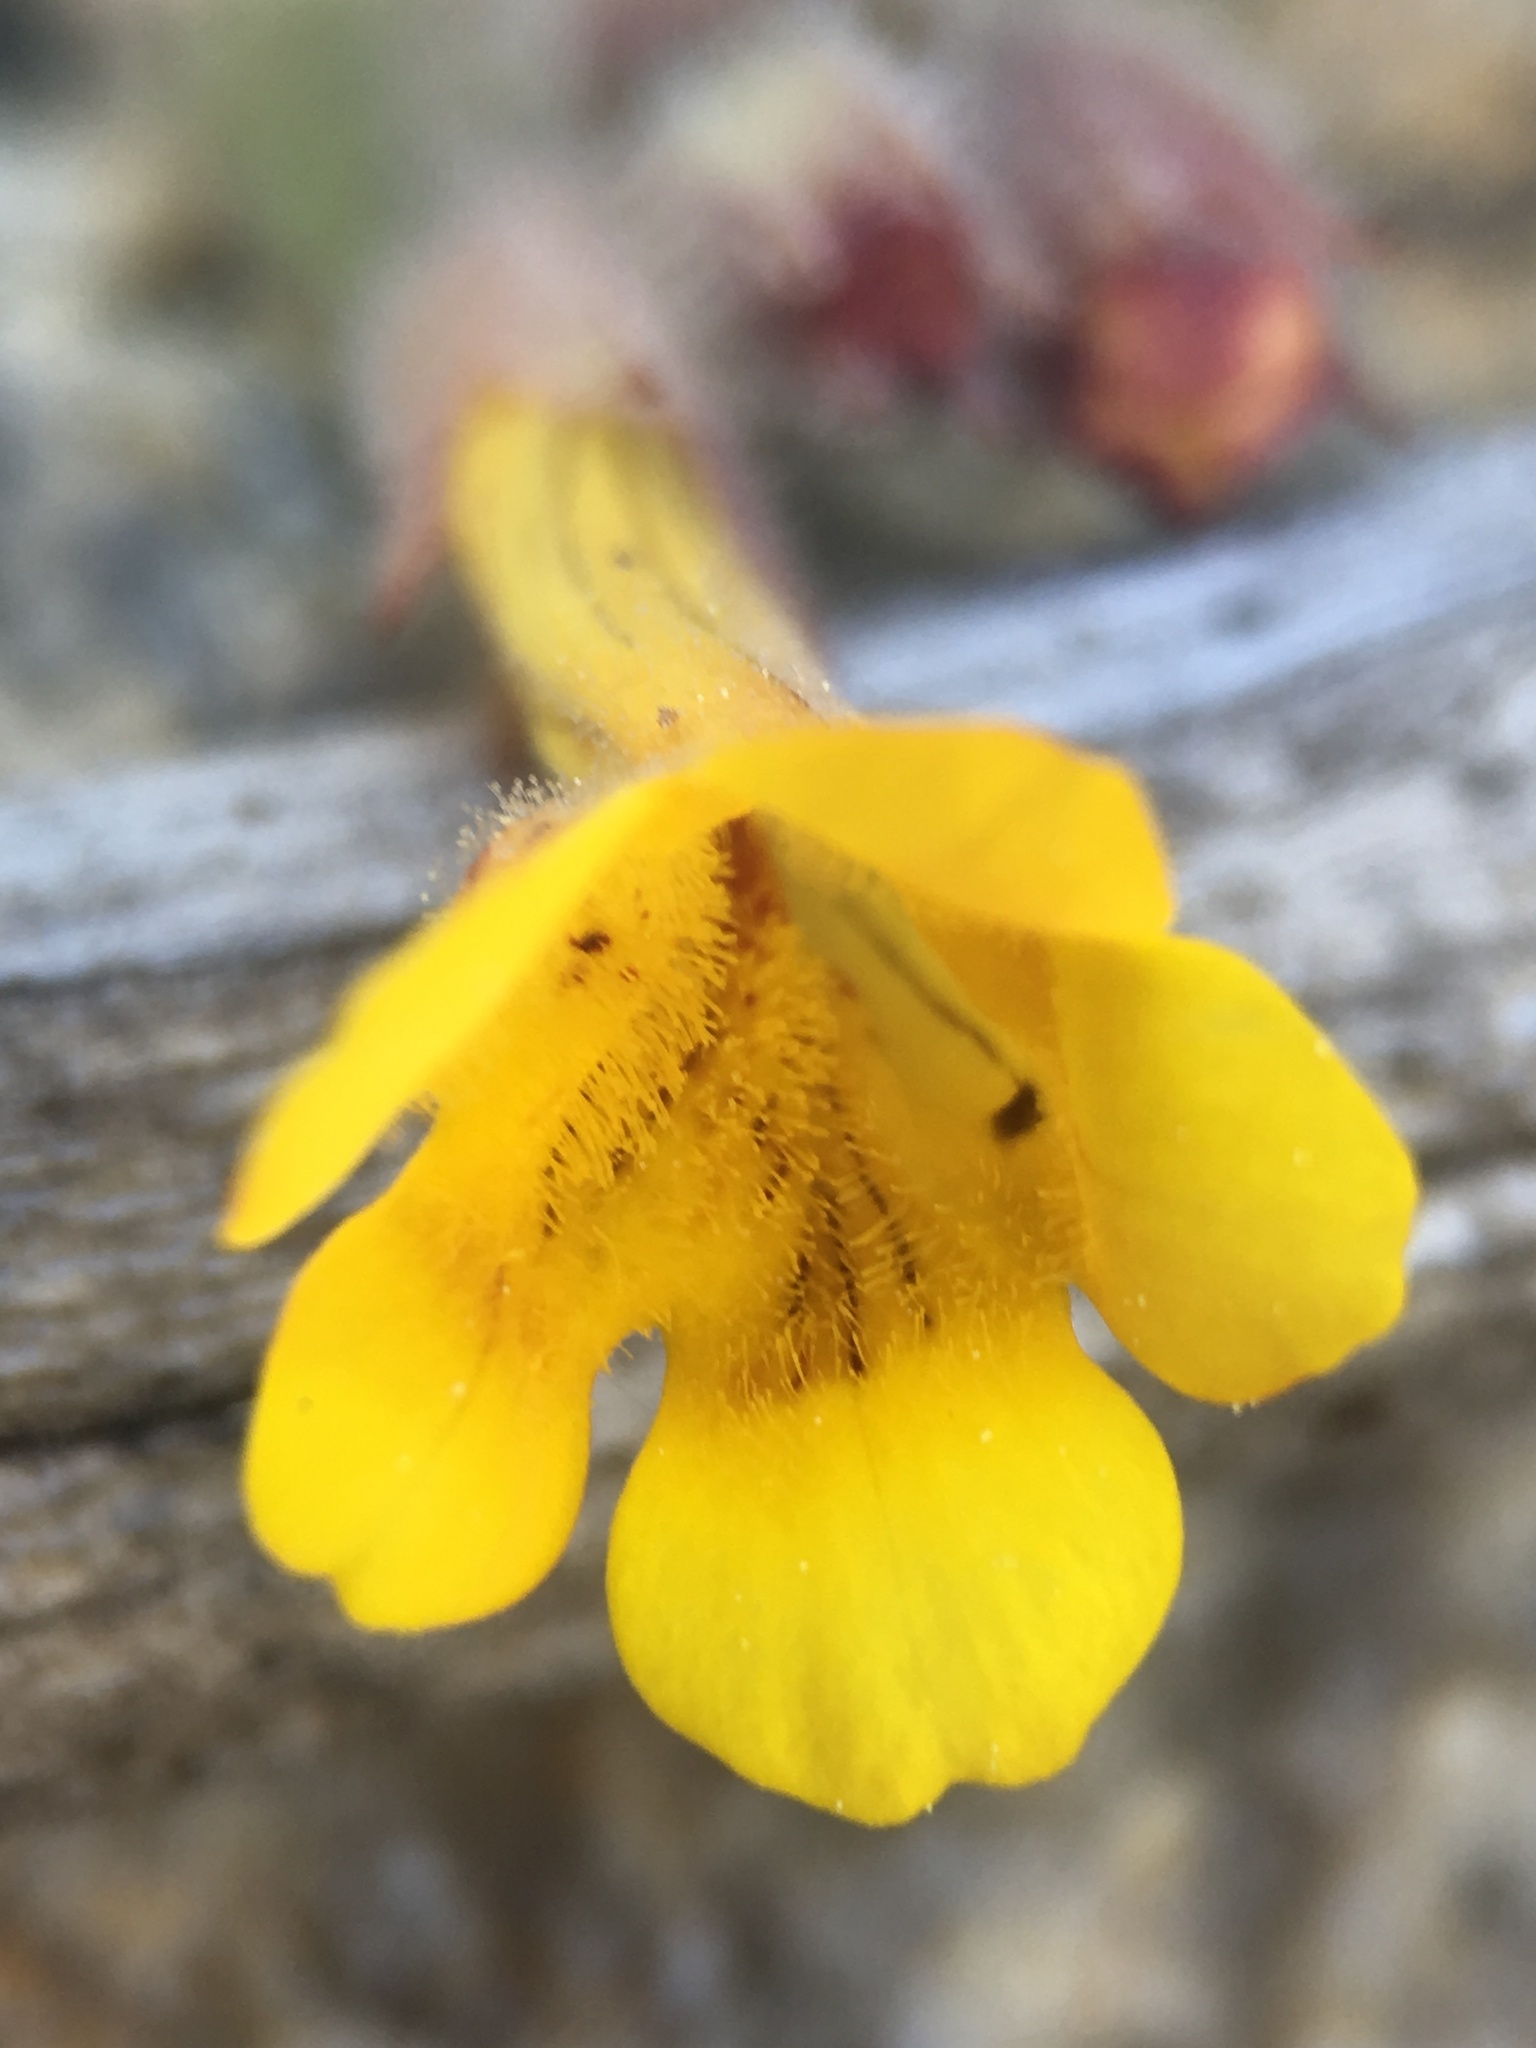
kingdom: Plantae
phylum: Tracheophyta
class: Magnoliopsida
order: Lamiales
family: Phrymaceae
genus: Erythranthe
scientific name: Erythranthe moschata
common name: Muskflower
